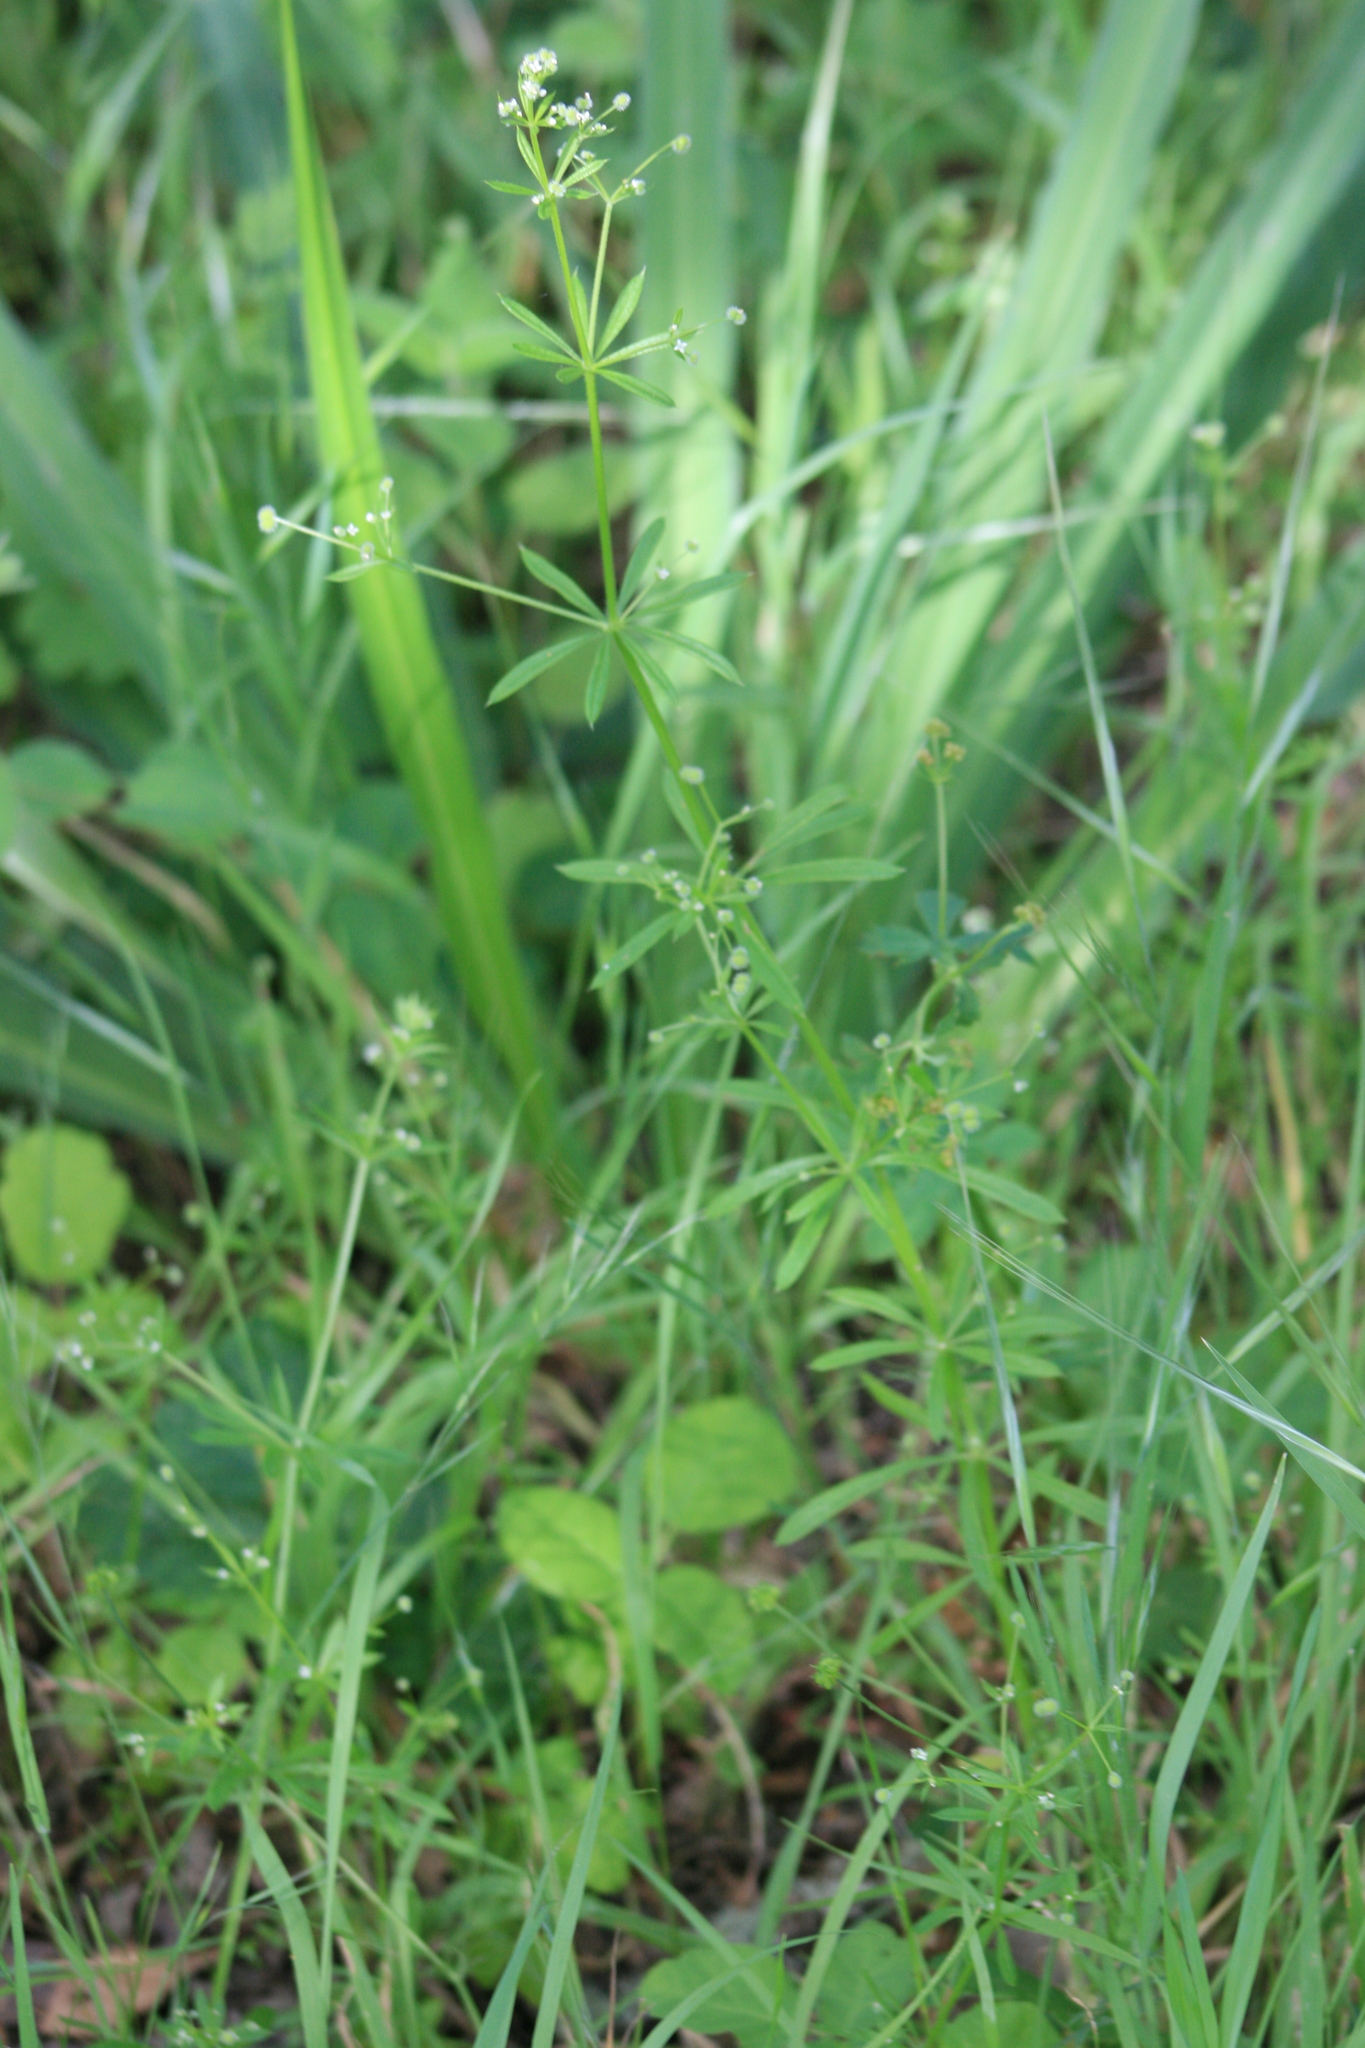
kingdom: Plantae
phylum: Tracheophyta
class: Magnoliopsida
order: Gentianales
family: Rubiaceae
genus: Galium
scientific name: Galium aparine
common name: Cleavers
